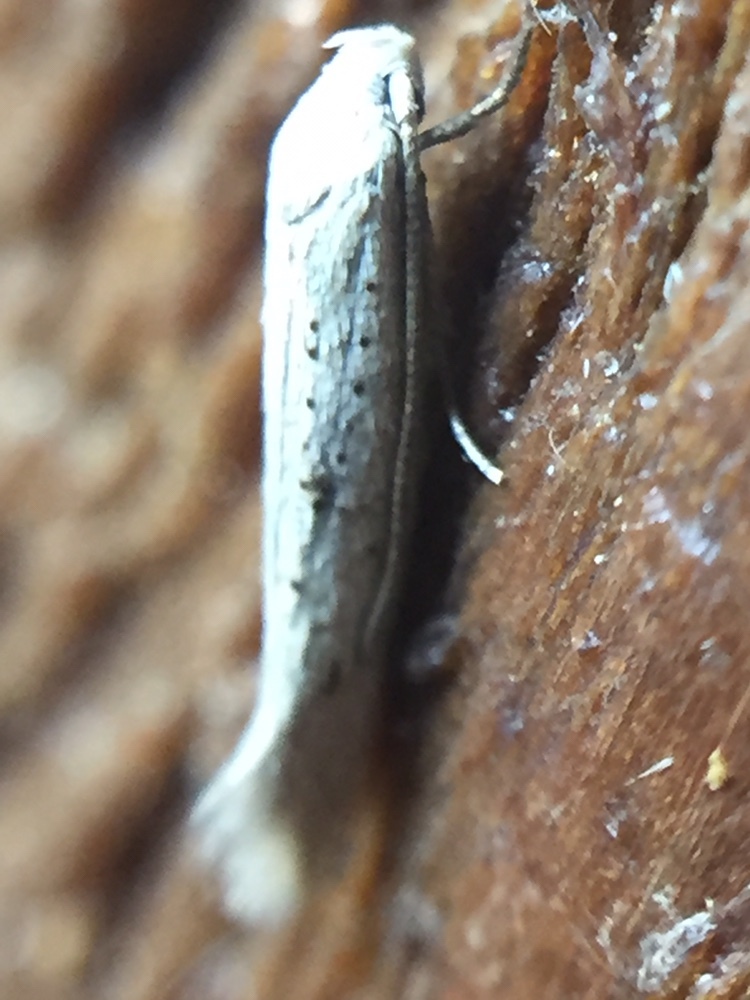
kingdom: Animalia
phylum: Arthropoda
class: Insecta
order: Lepidoptera
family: Elachistidae
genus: Elachista
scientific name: Elachista gerasmia
